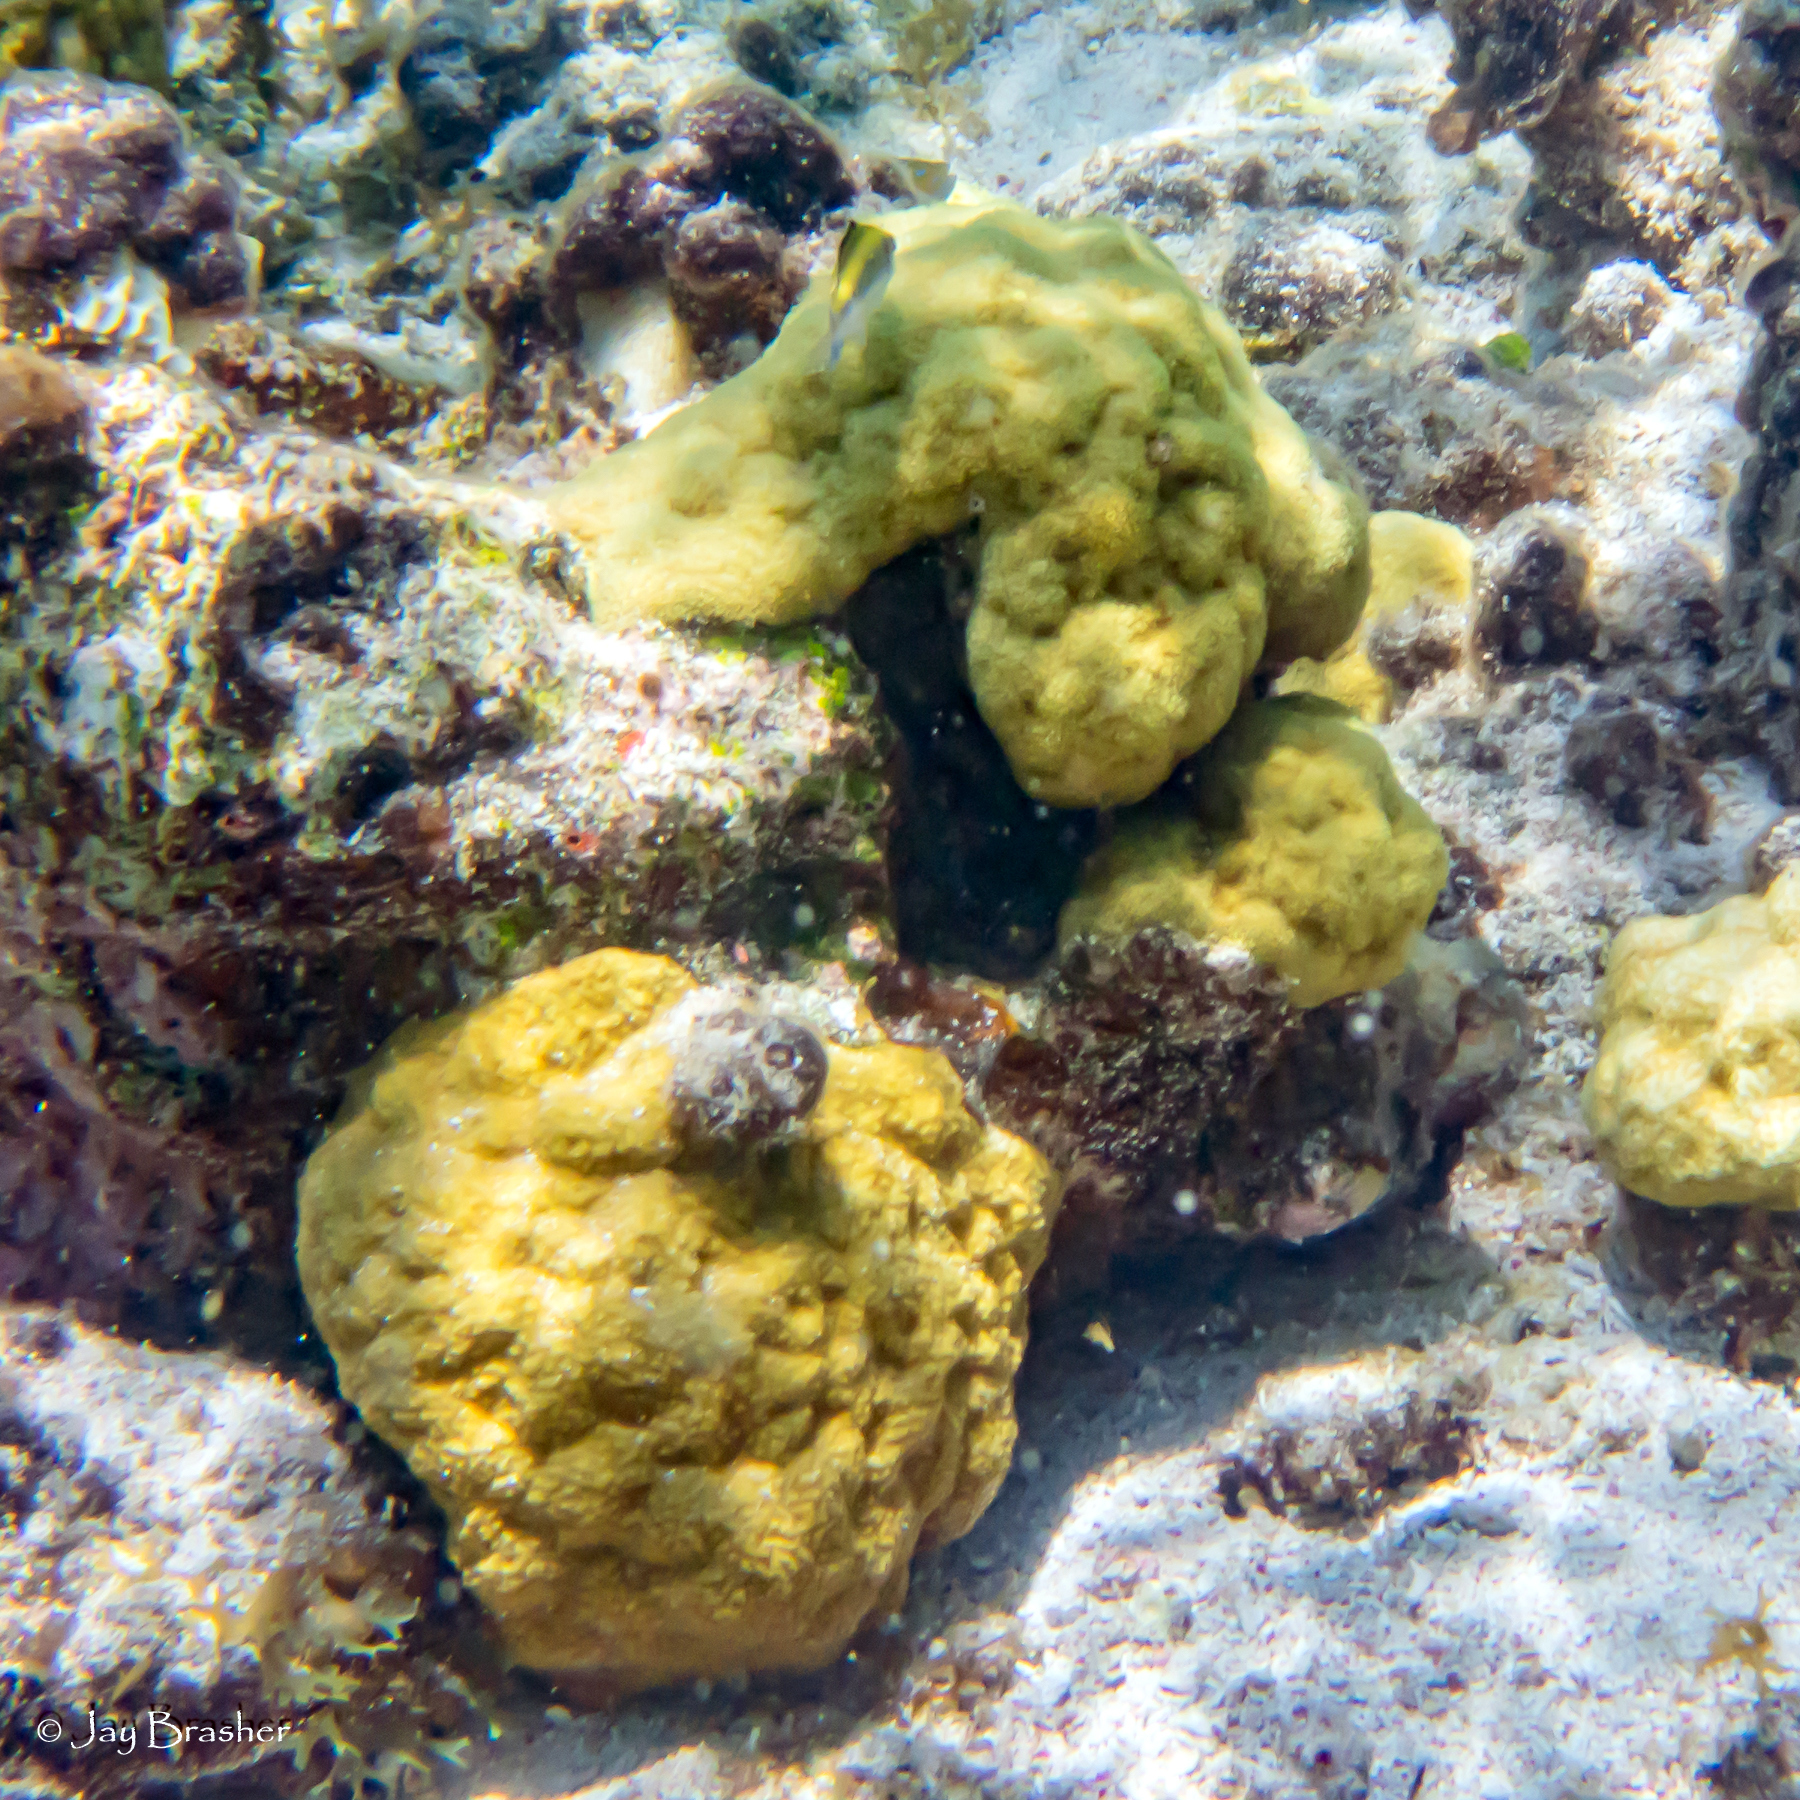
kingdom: Animalia
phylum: Cnidaria
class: Anthozoa
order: Scleractinia
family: Poritidae
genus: Porites
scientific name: Porites astreoides
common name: Mustard hill coral
